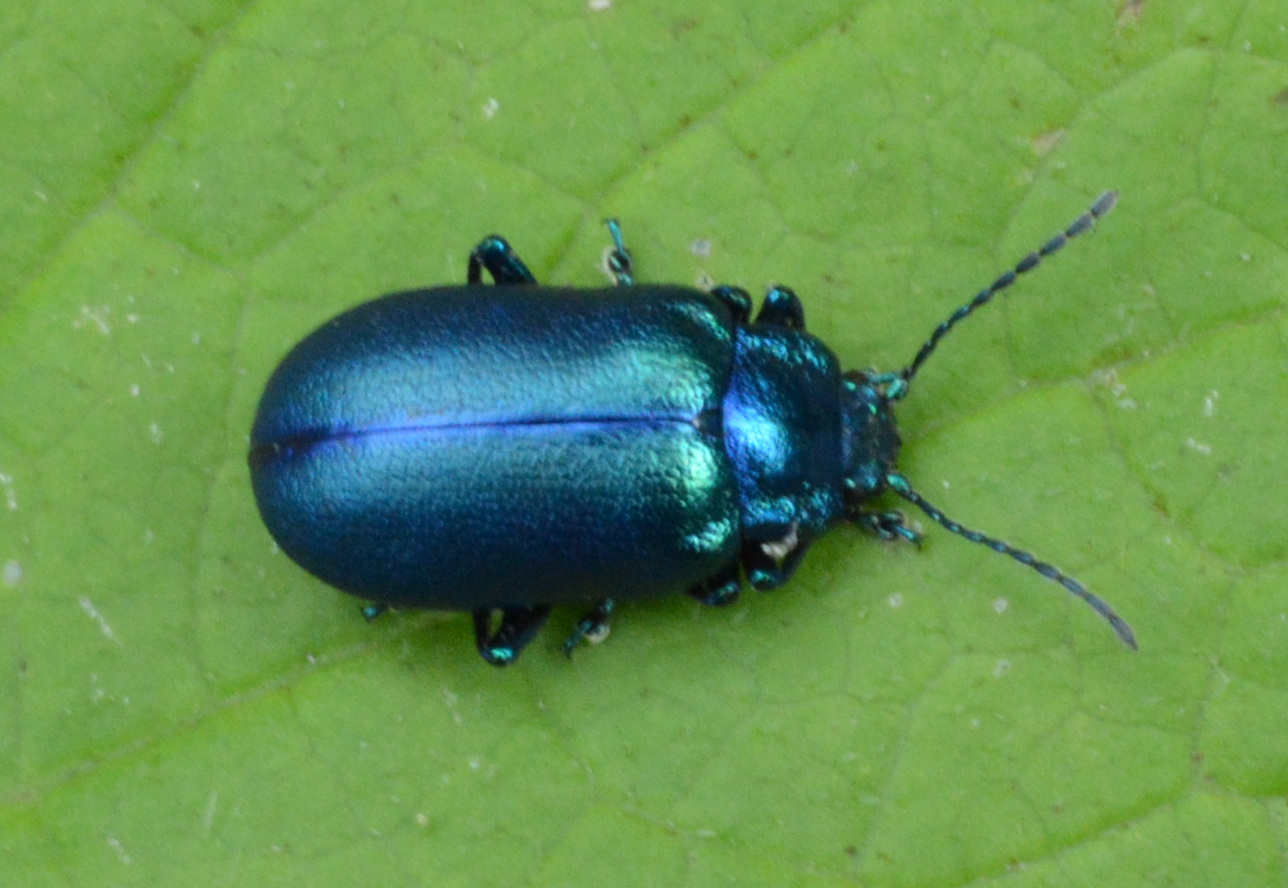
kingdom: Animalia
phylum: Arthropoda
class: Insecta
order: Coleoptera
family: Chrysomelidae
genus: Oreina
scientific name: Oreina cacaliae
